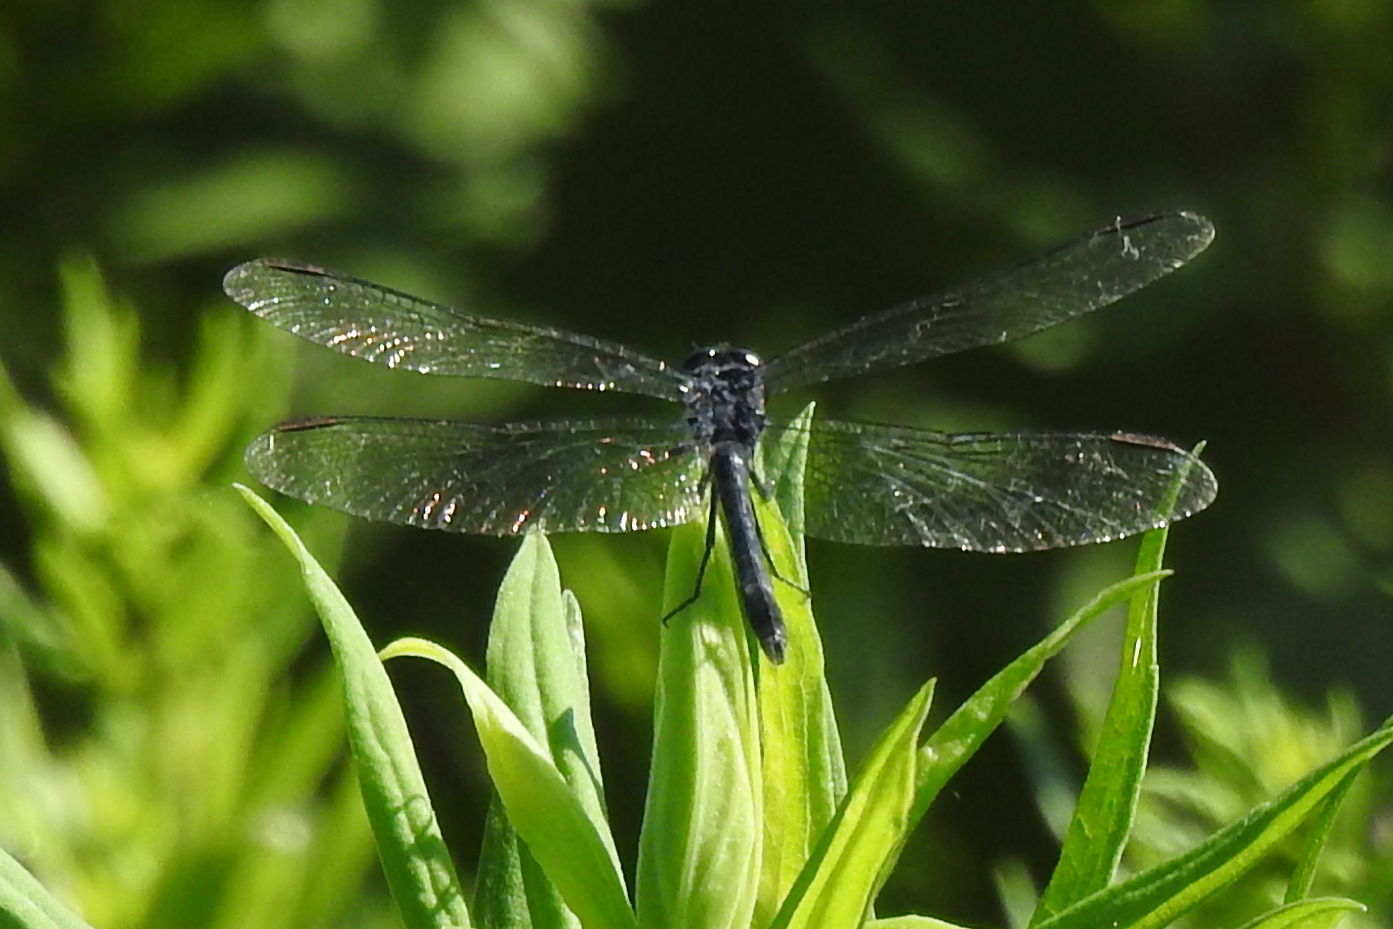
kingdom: Animalia
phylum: Arthropoda
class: Insecta
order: Odonata
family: Libellulidae
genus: Erythrodiplax
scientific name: Erythrodiplax berenice
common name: Seaside dragonlet
